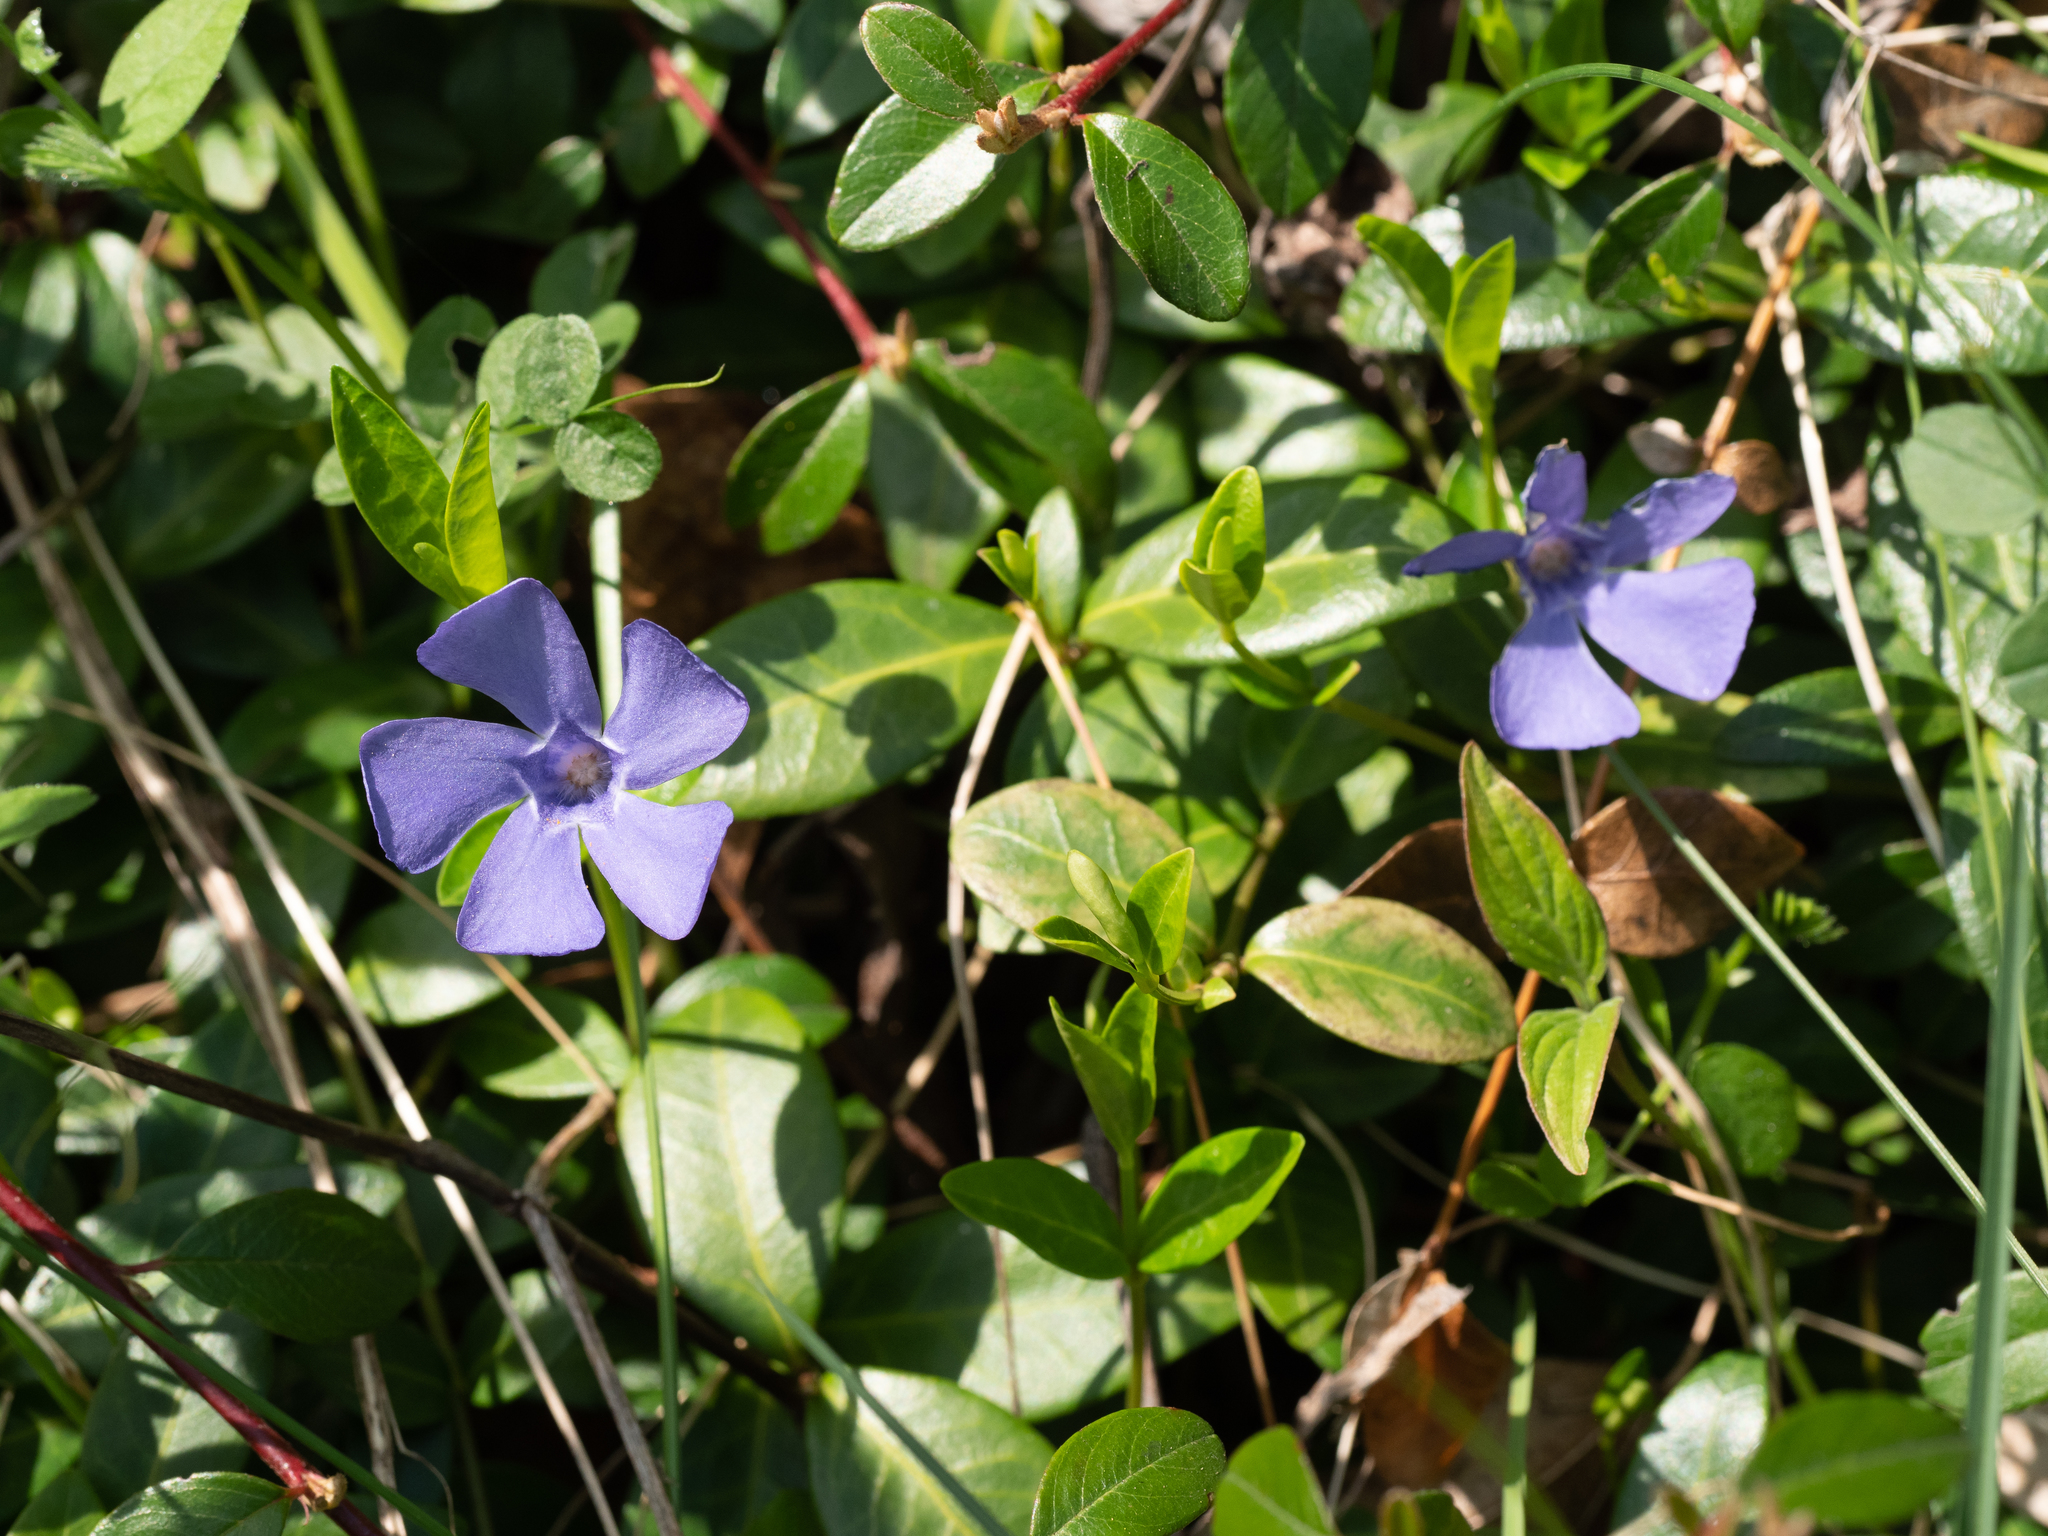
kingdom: Plantae
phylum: Tracheophyta
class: Magnoliopsida
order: Gentianales
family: Apocynaceae
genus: Vinca
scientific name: Vinca minor
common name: Lesser periwinkle
